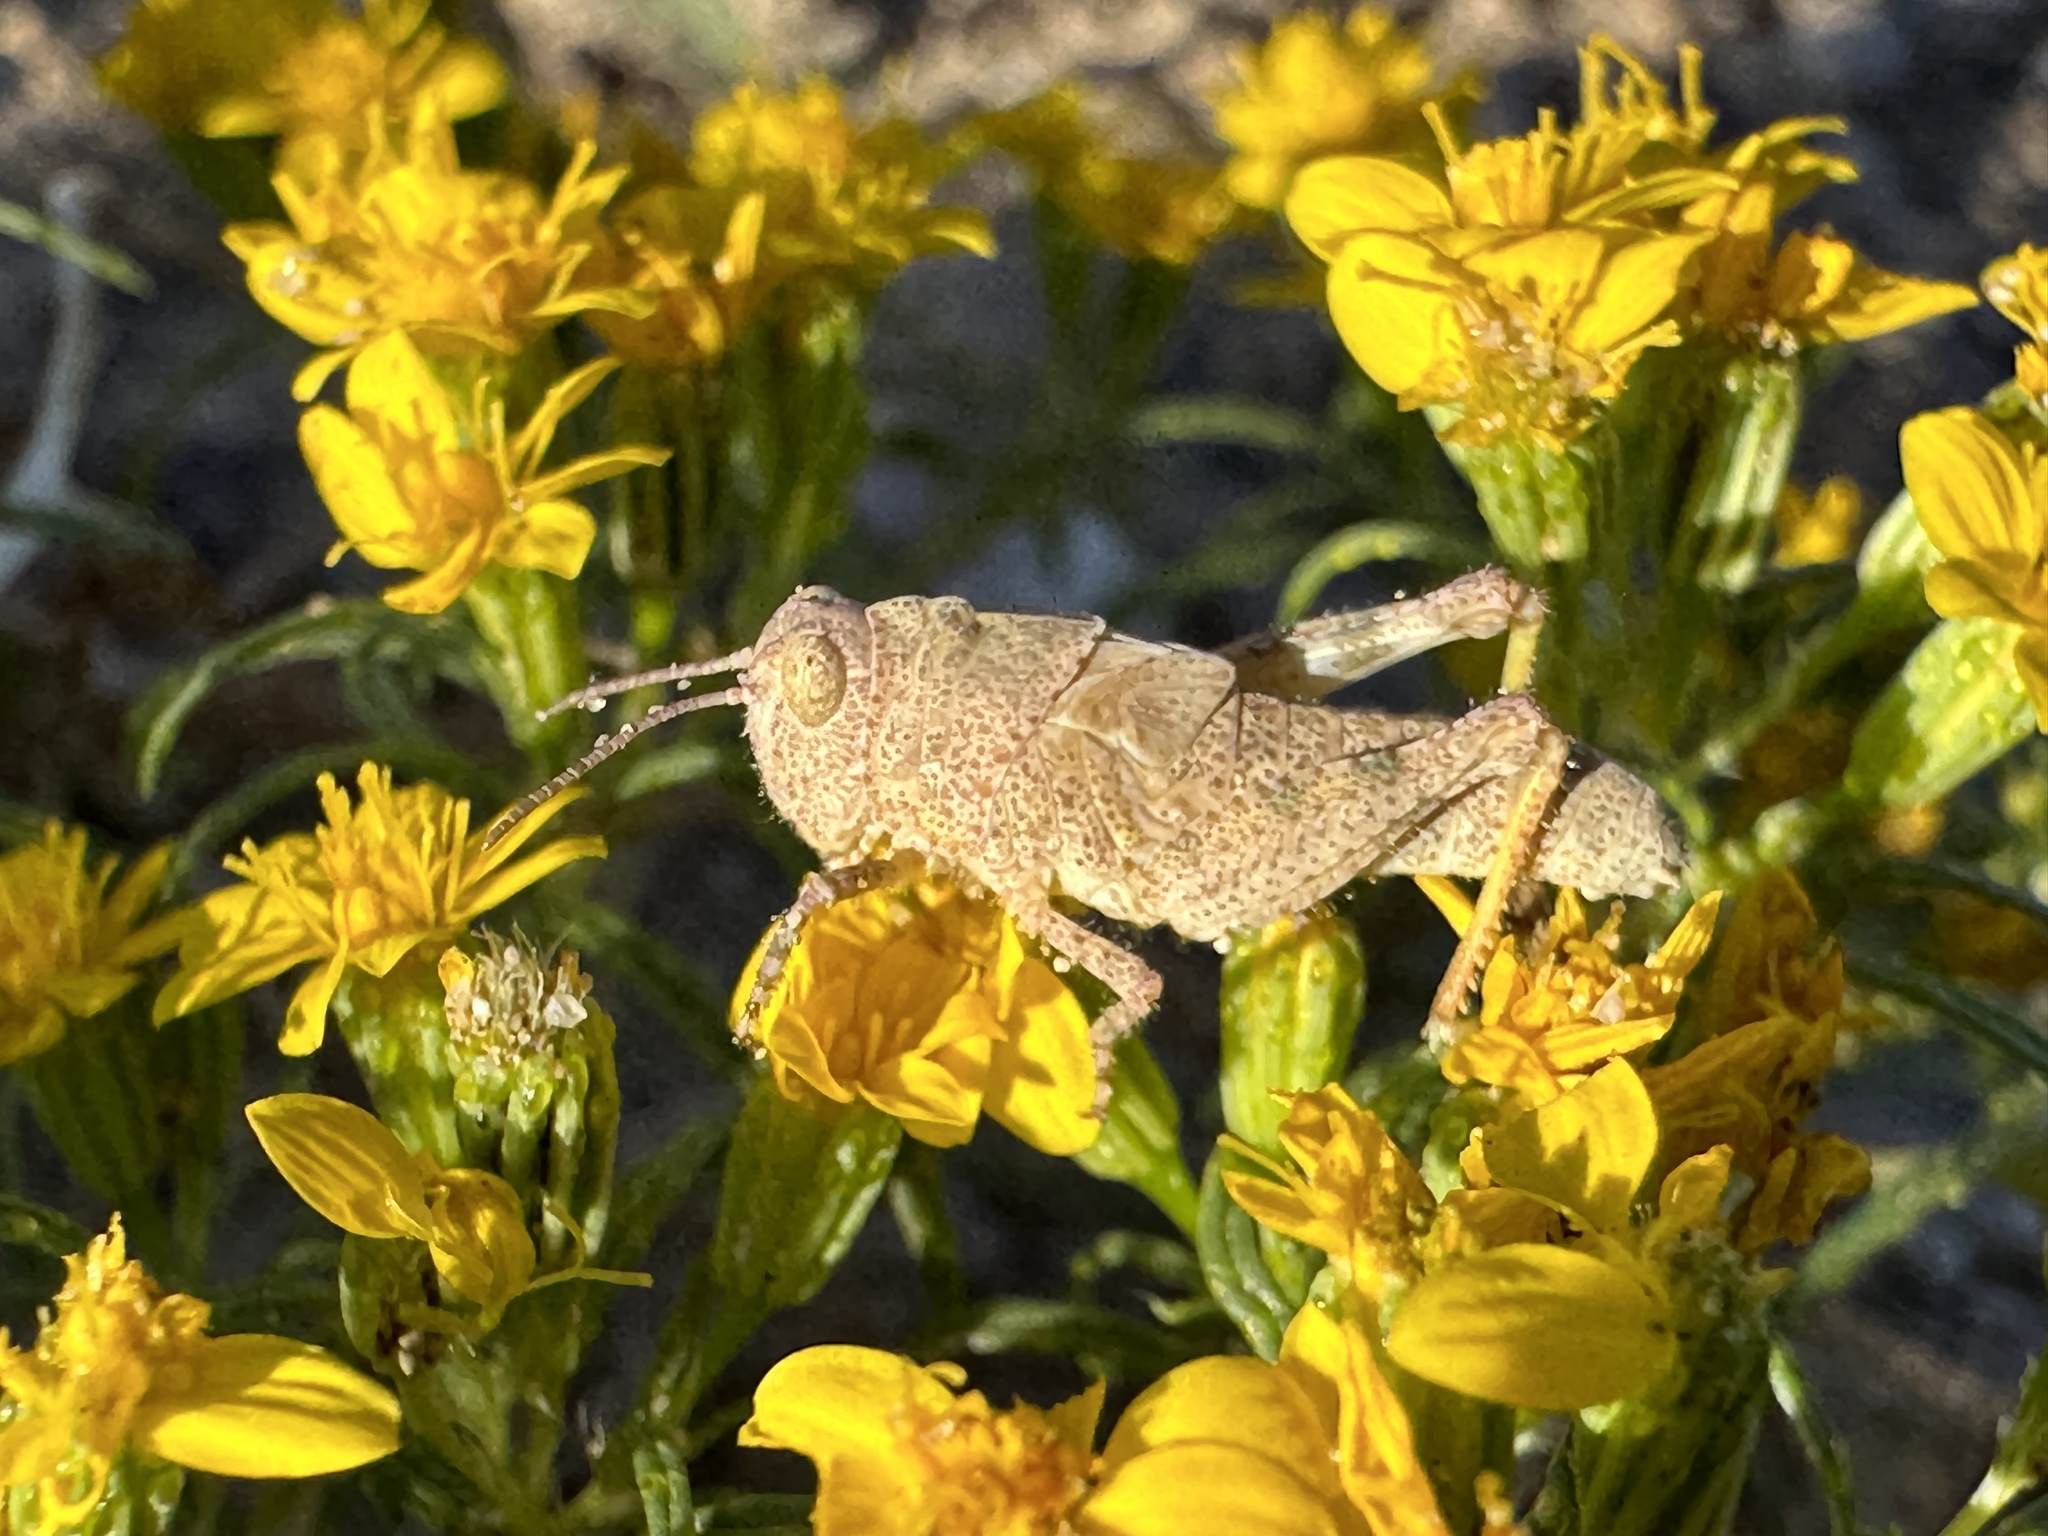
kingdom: Animalia
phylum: Arthropoda
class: Insecta
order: Orthoptera
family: Acrididae
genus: Trimerotropis
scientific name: Trimerotropis pallidipennis
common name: Pallid-winged grasshopper
